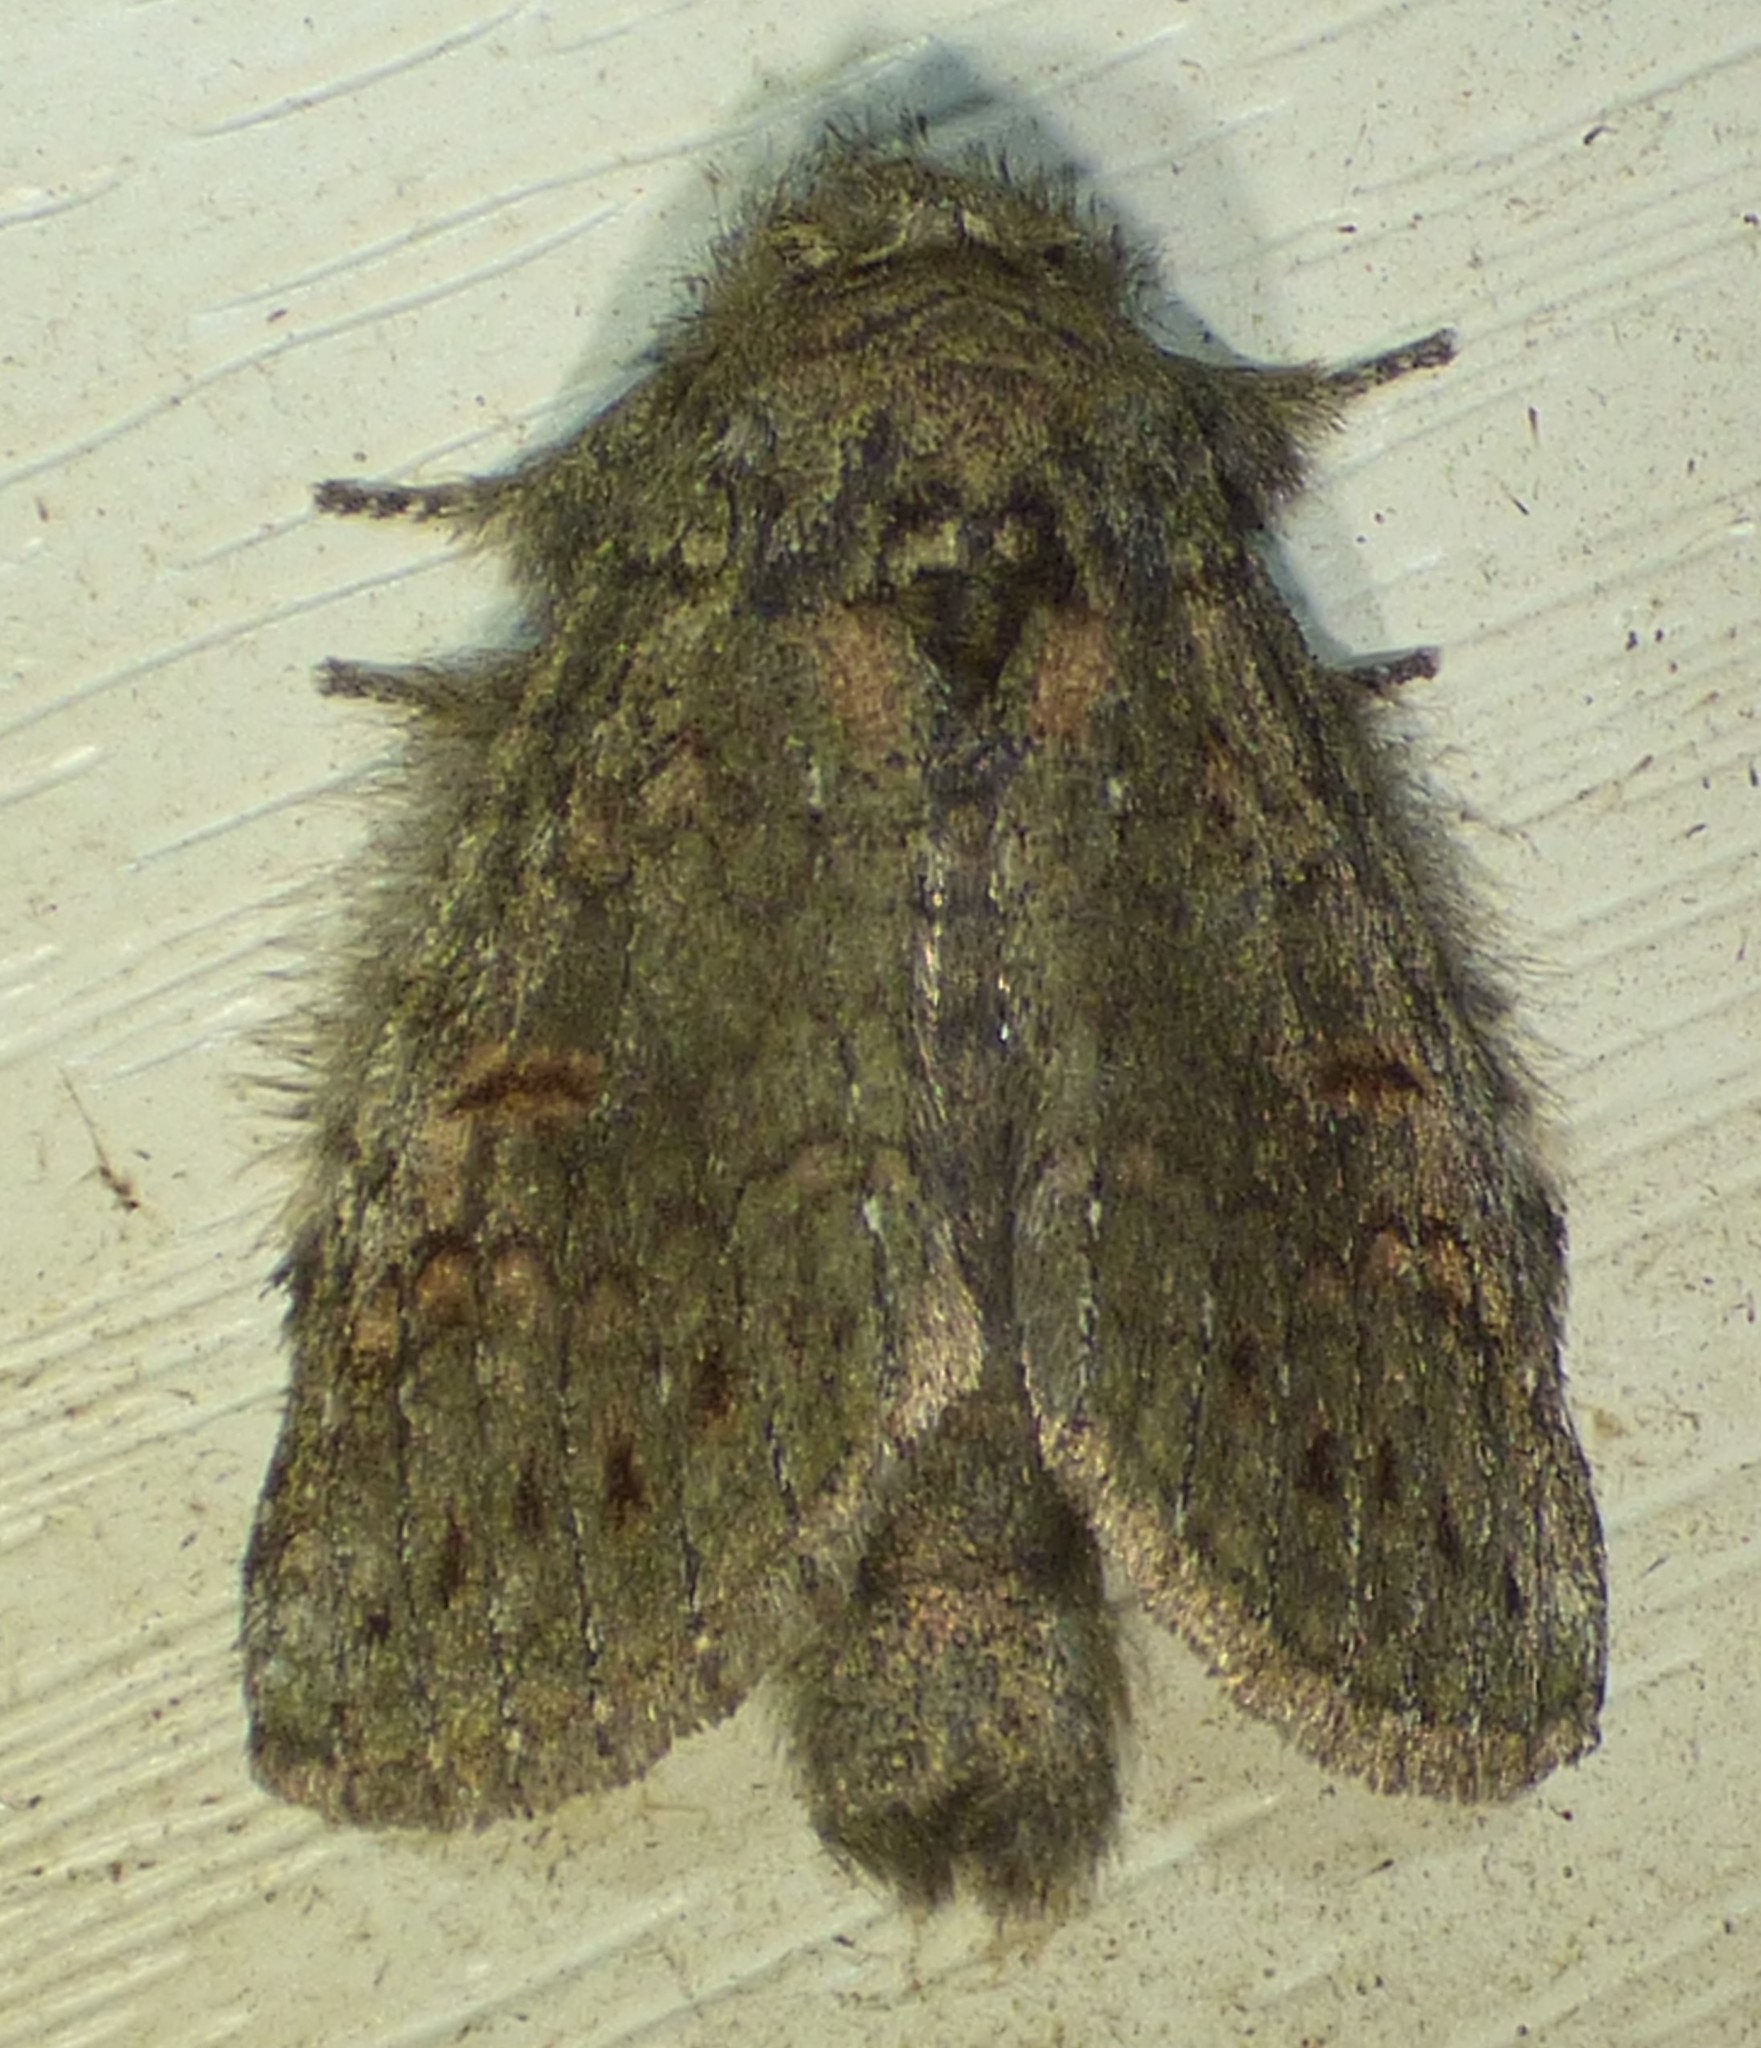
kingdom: Animalia
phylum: Arthropoda
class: Insecta
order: Lepidoptera
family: Notodontidae
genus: Disphragis
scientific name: Disphragis Cecrita biundata
